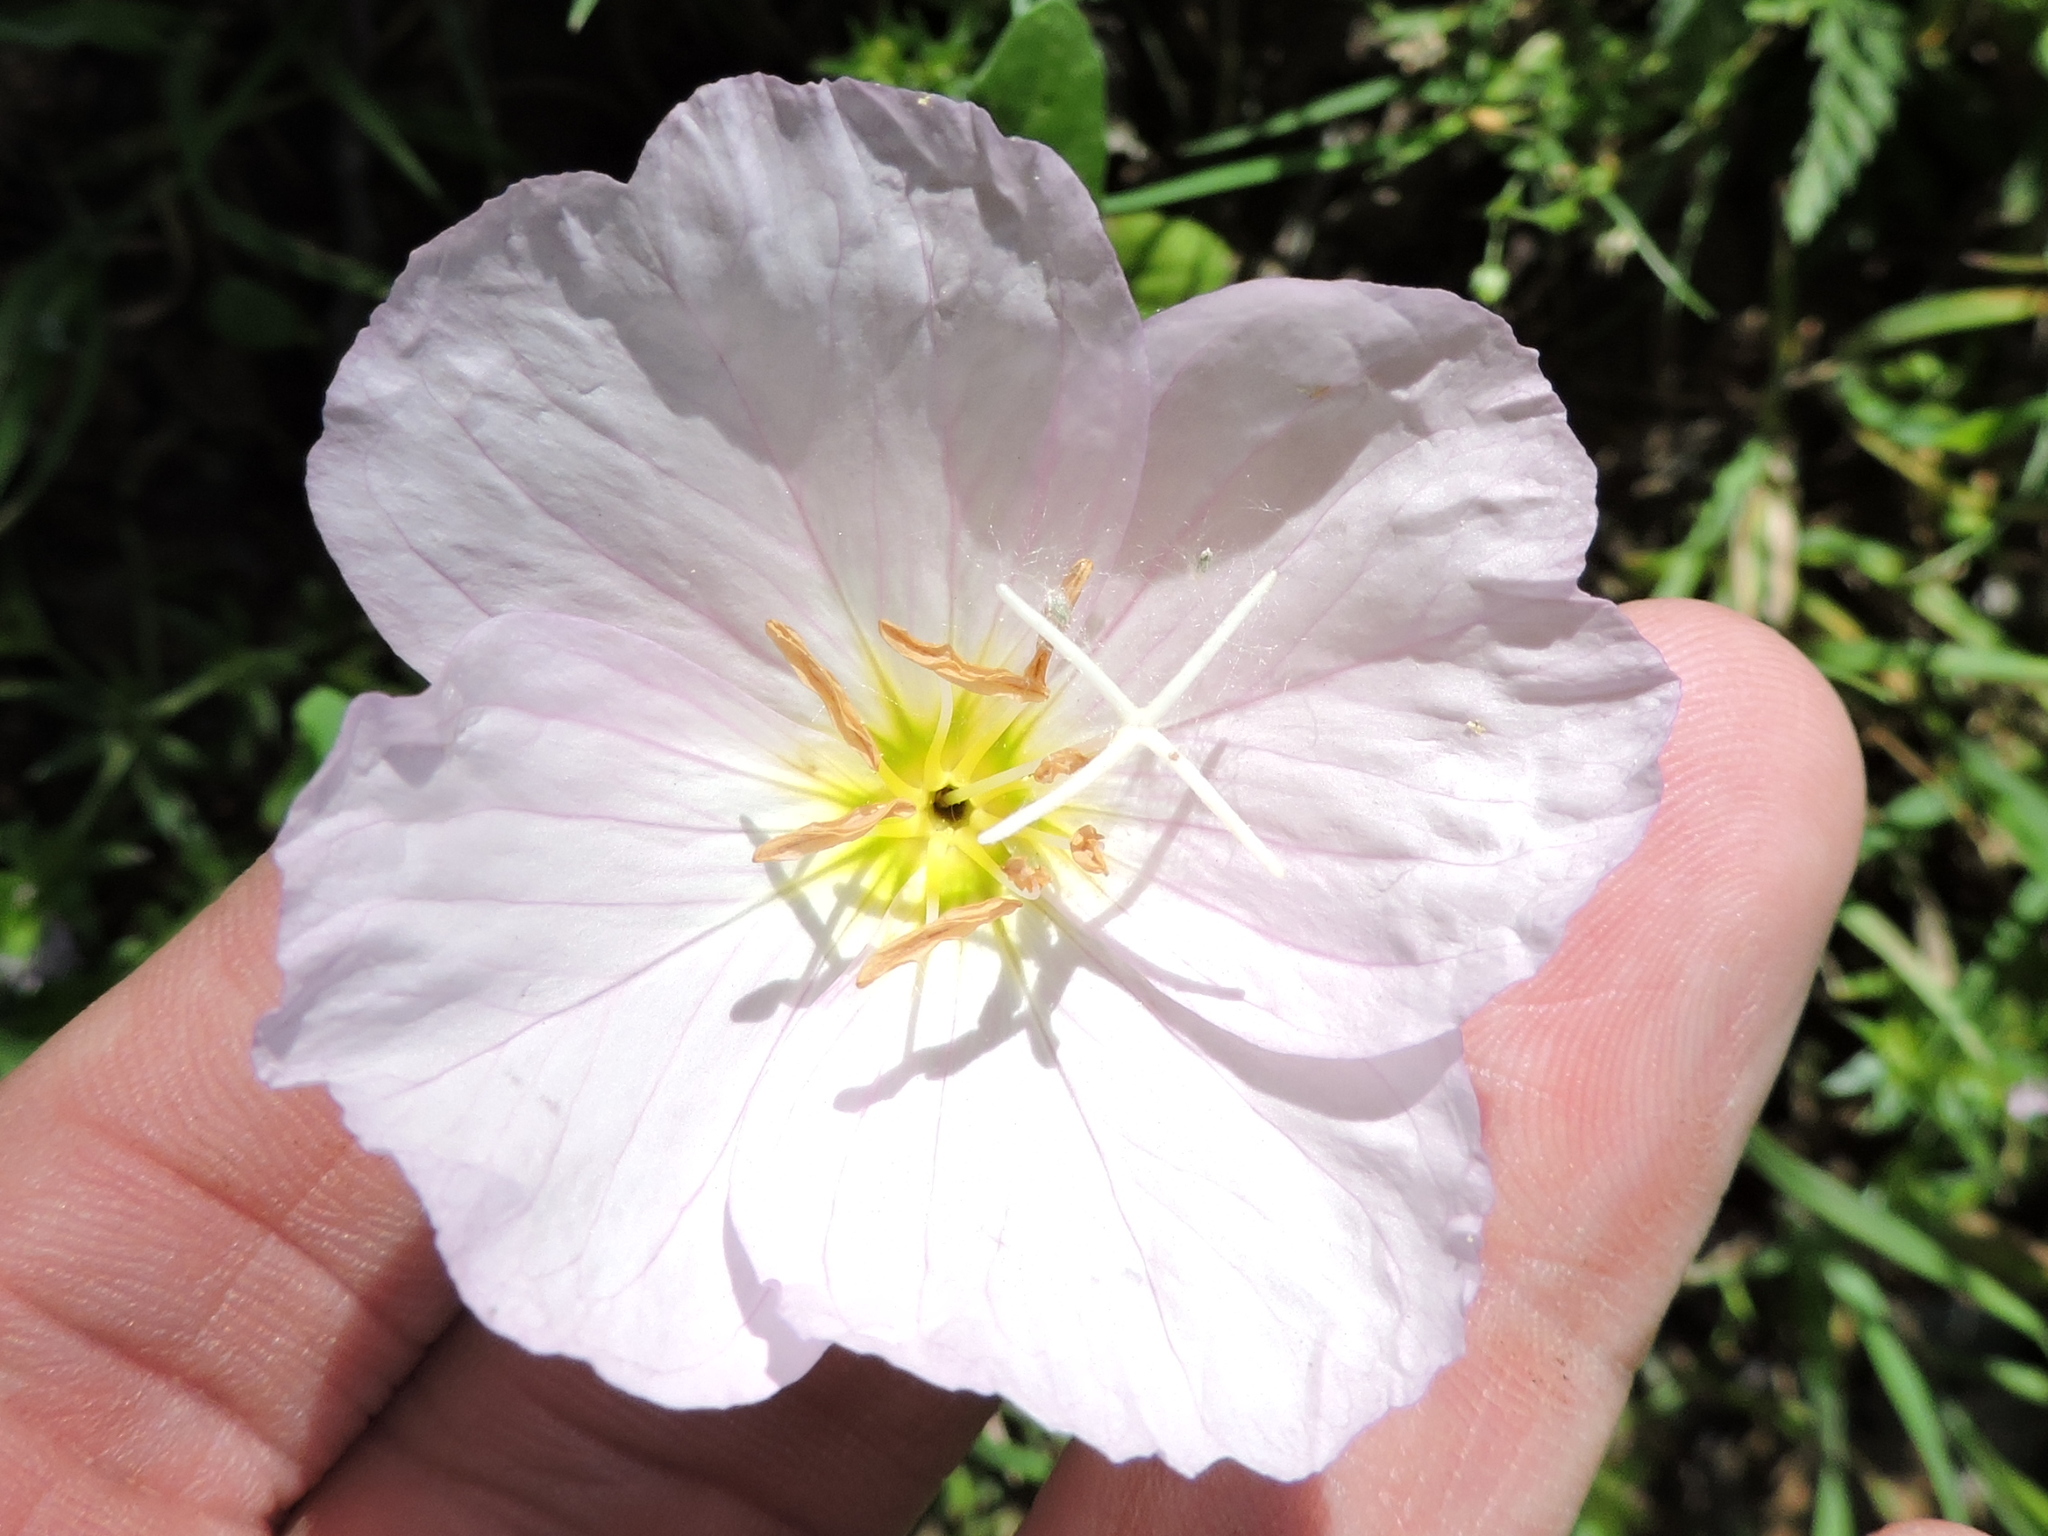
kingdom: Plantae
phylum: Tracheophyta
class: Magnoliopsida
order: Myrtales
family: Onagraceae
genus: Oenothera
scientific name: Oenothera speciosa
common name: White evening-primrose
